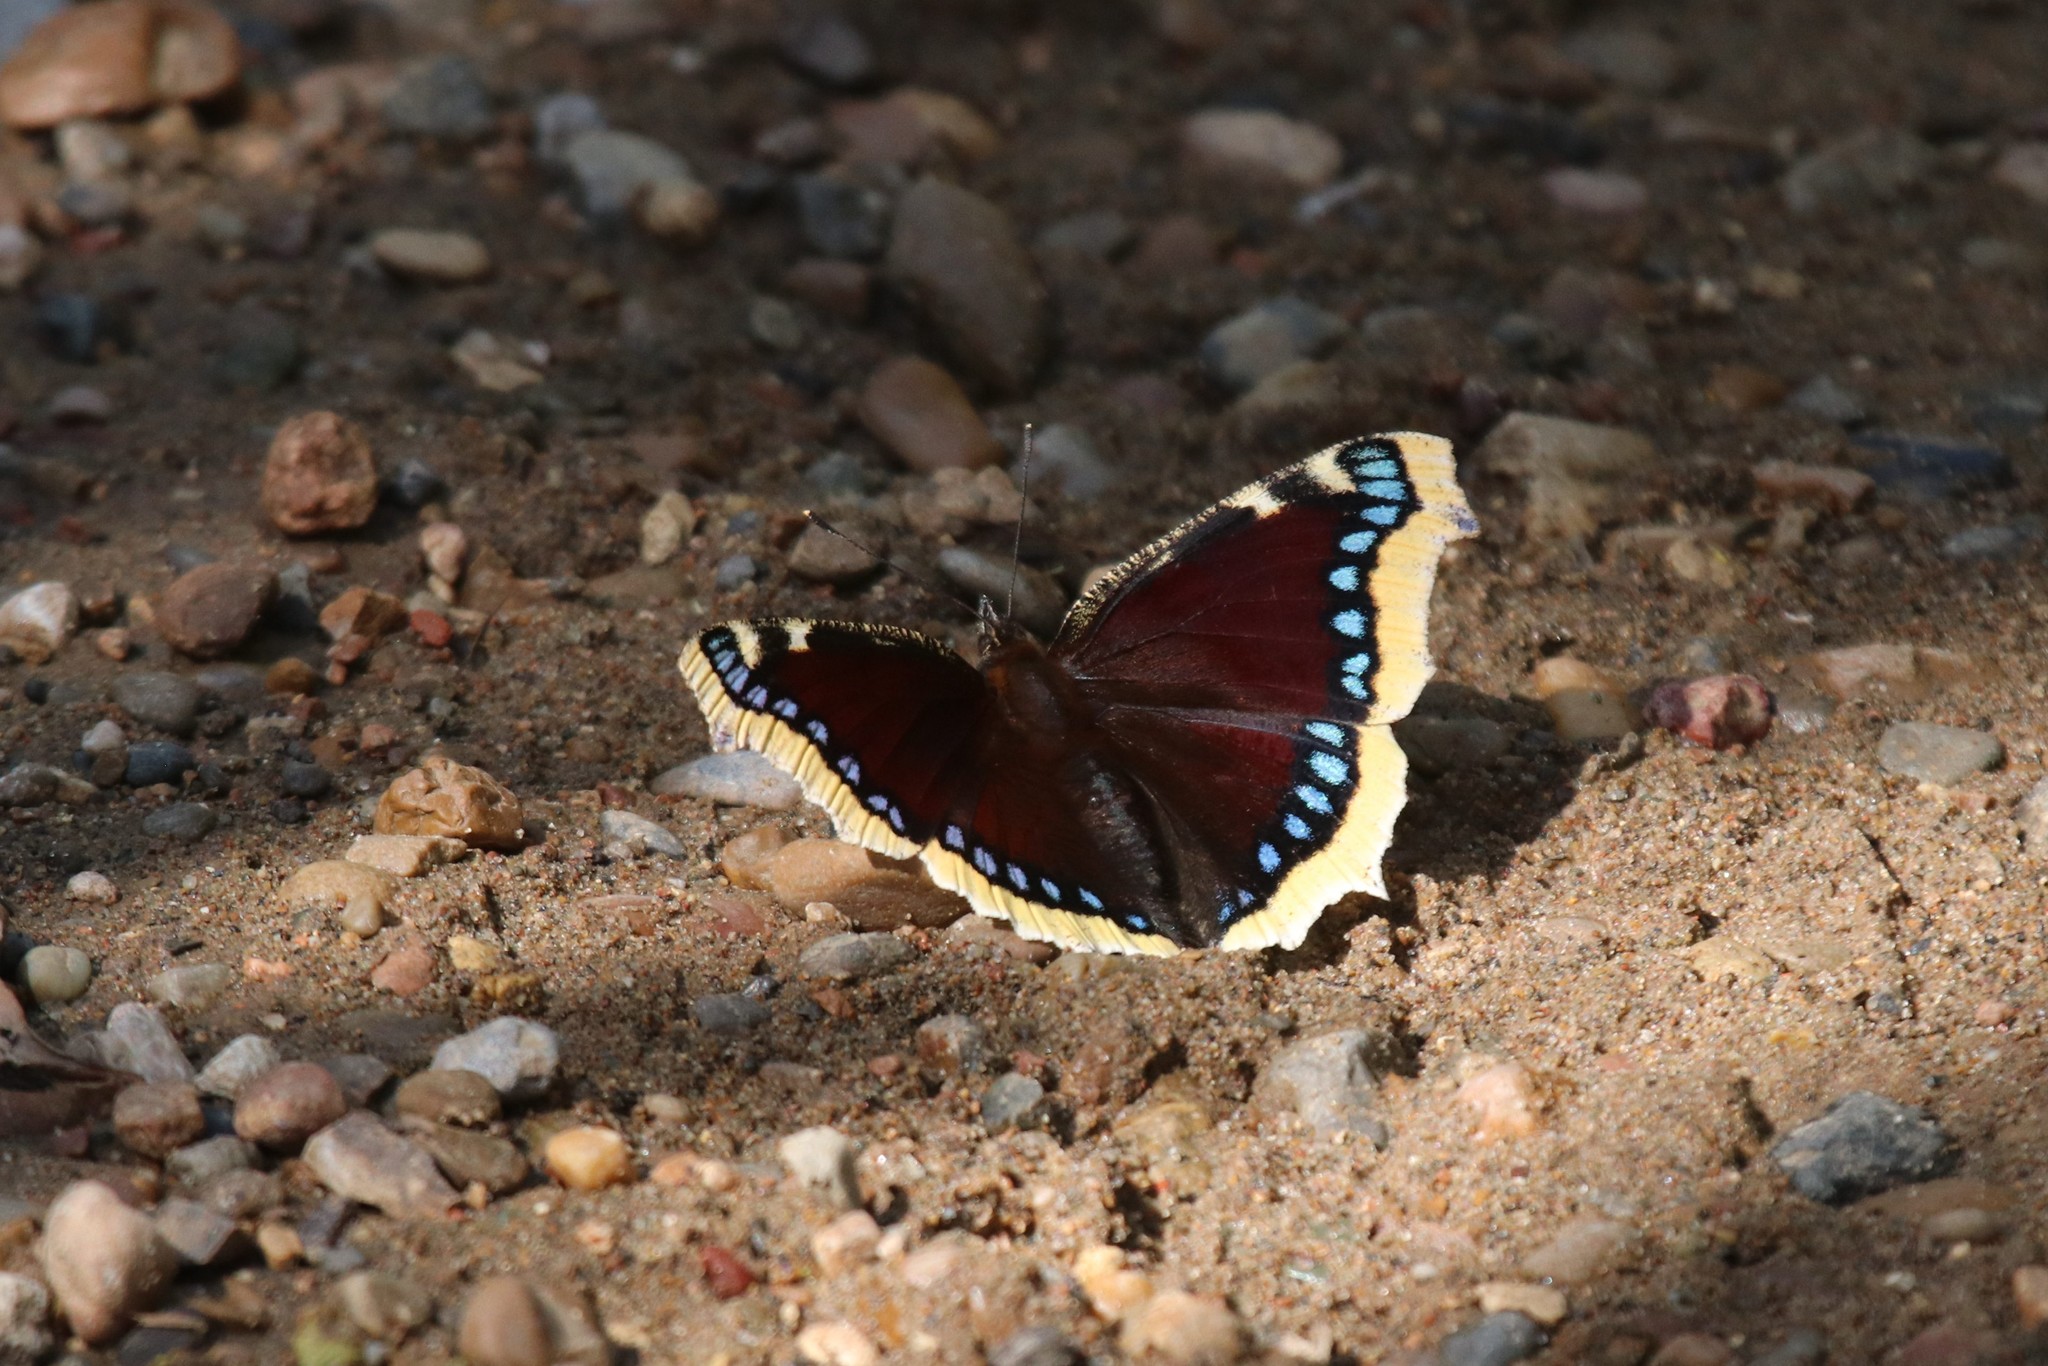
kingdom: Animalia
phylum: Arthropoda
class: Insecta
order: Lepidoptera
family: Nymphalidae
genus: Nymphalis
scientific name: Nymphalis antiopa
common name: Camberwell beauty
